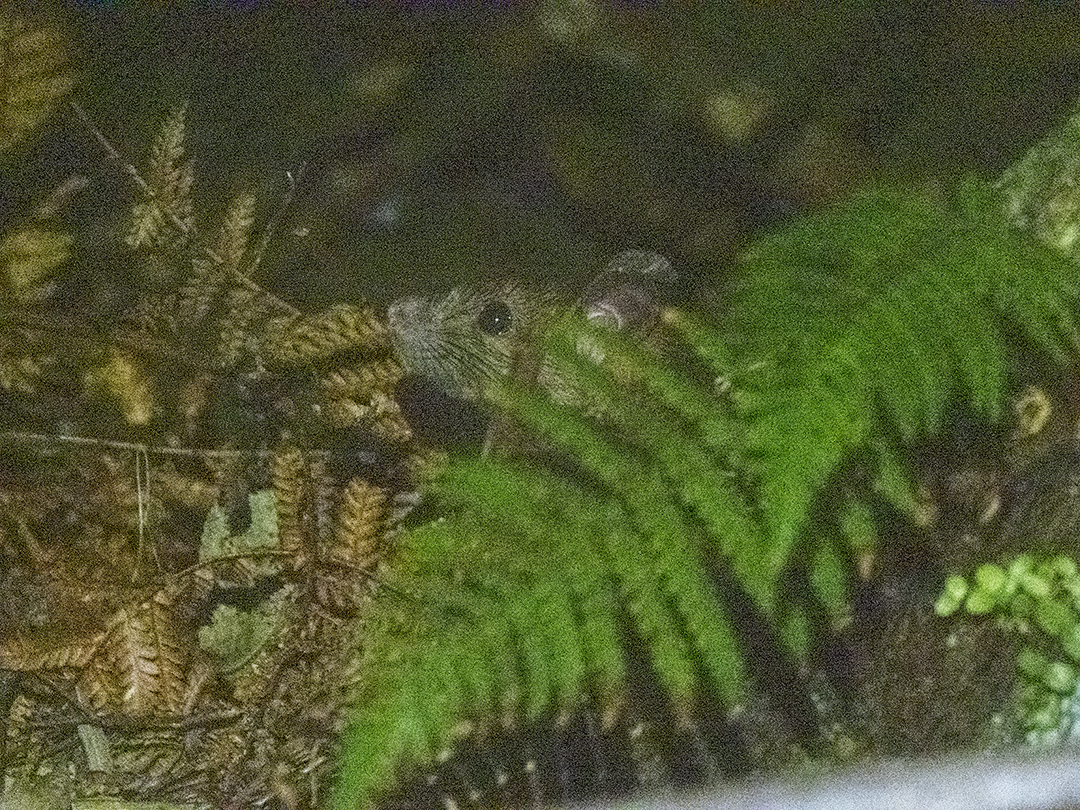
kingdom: Animalia
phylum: Chordata
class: Mammalia
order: Rodentia
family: Muridae
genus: Rattus
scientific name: Rattus rattus
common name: Black rat
